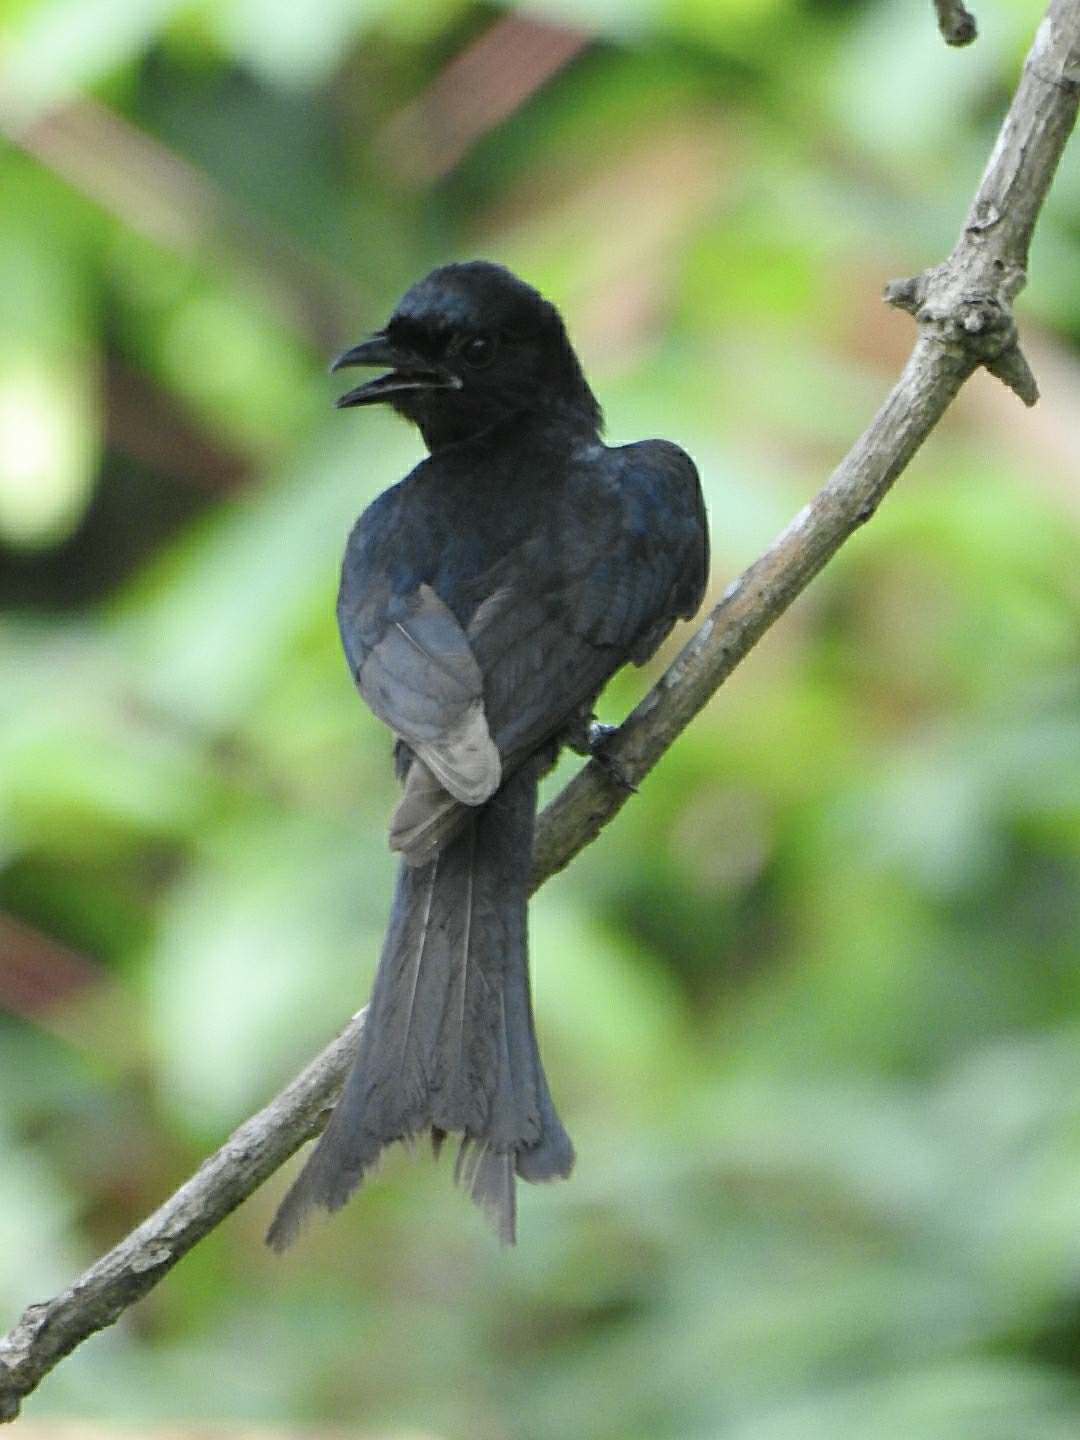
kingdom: Animalia
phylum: Chordata
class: Aves
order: Passeriformes
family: Dicruridae
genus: Dicrurus
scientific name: Dicrurus macrocercus
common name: Black drongo
